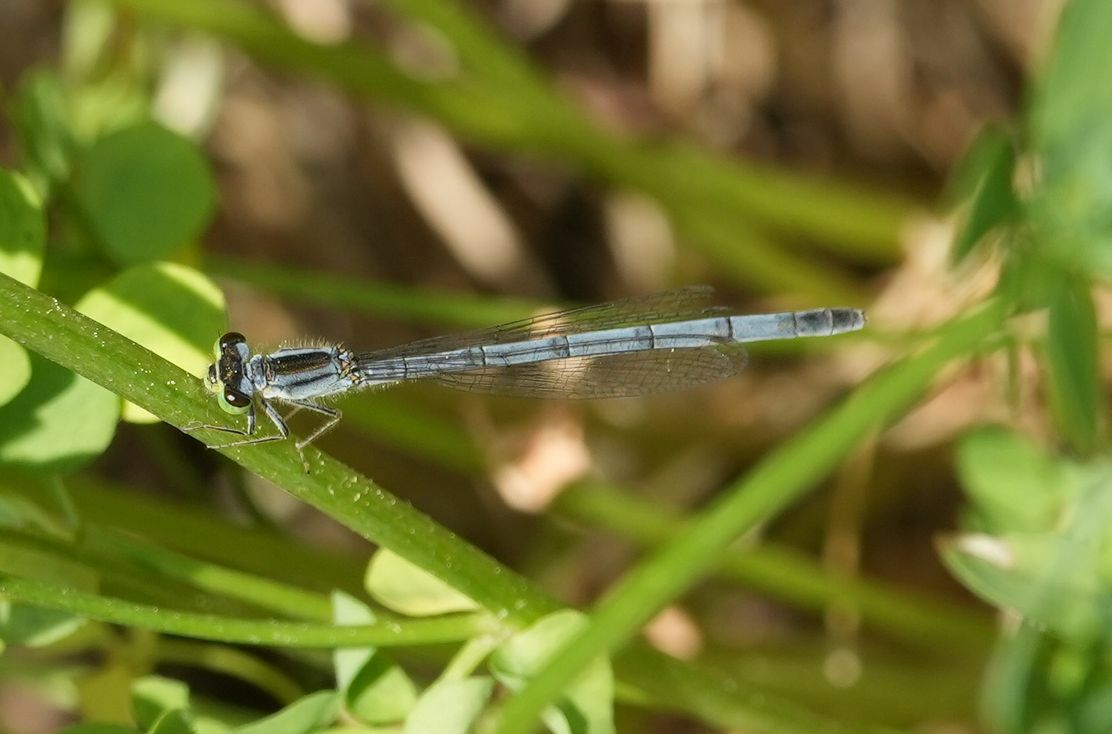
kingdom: Animalia
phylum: Arthropoda
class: Insecta
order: Odonata
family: Coenagrionidae
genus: Ischnura
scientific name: Ischnura verticalis
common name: Eastern forktail
